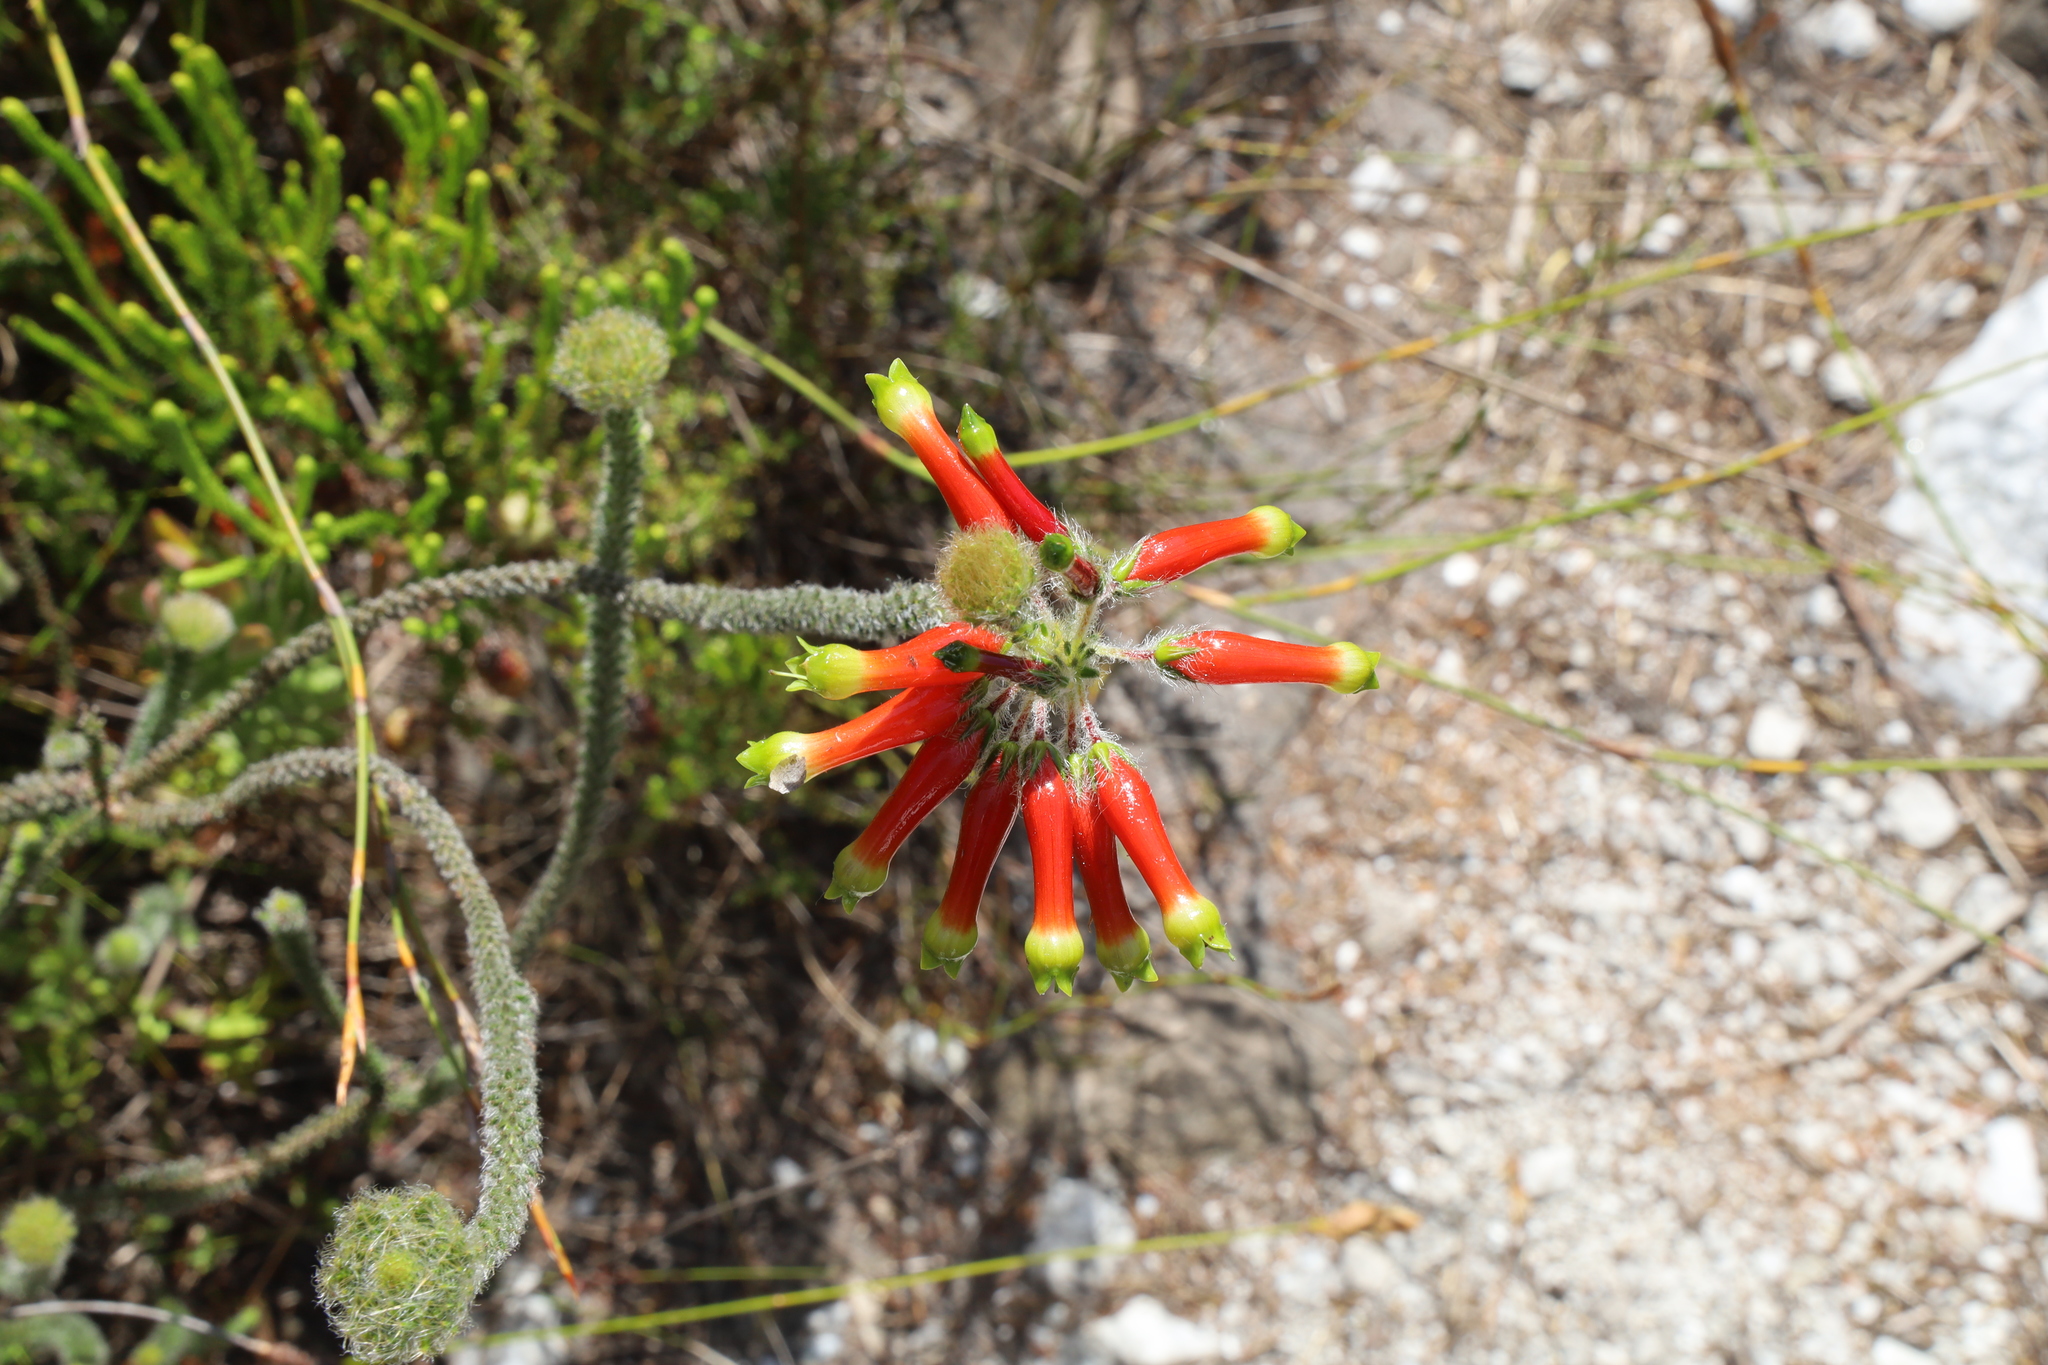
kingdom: Plantae
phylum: Tracheophyta
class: Magnoliopsida
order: Ericales
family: Ericaceae
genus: Erica
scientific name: Erica massonii
